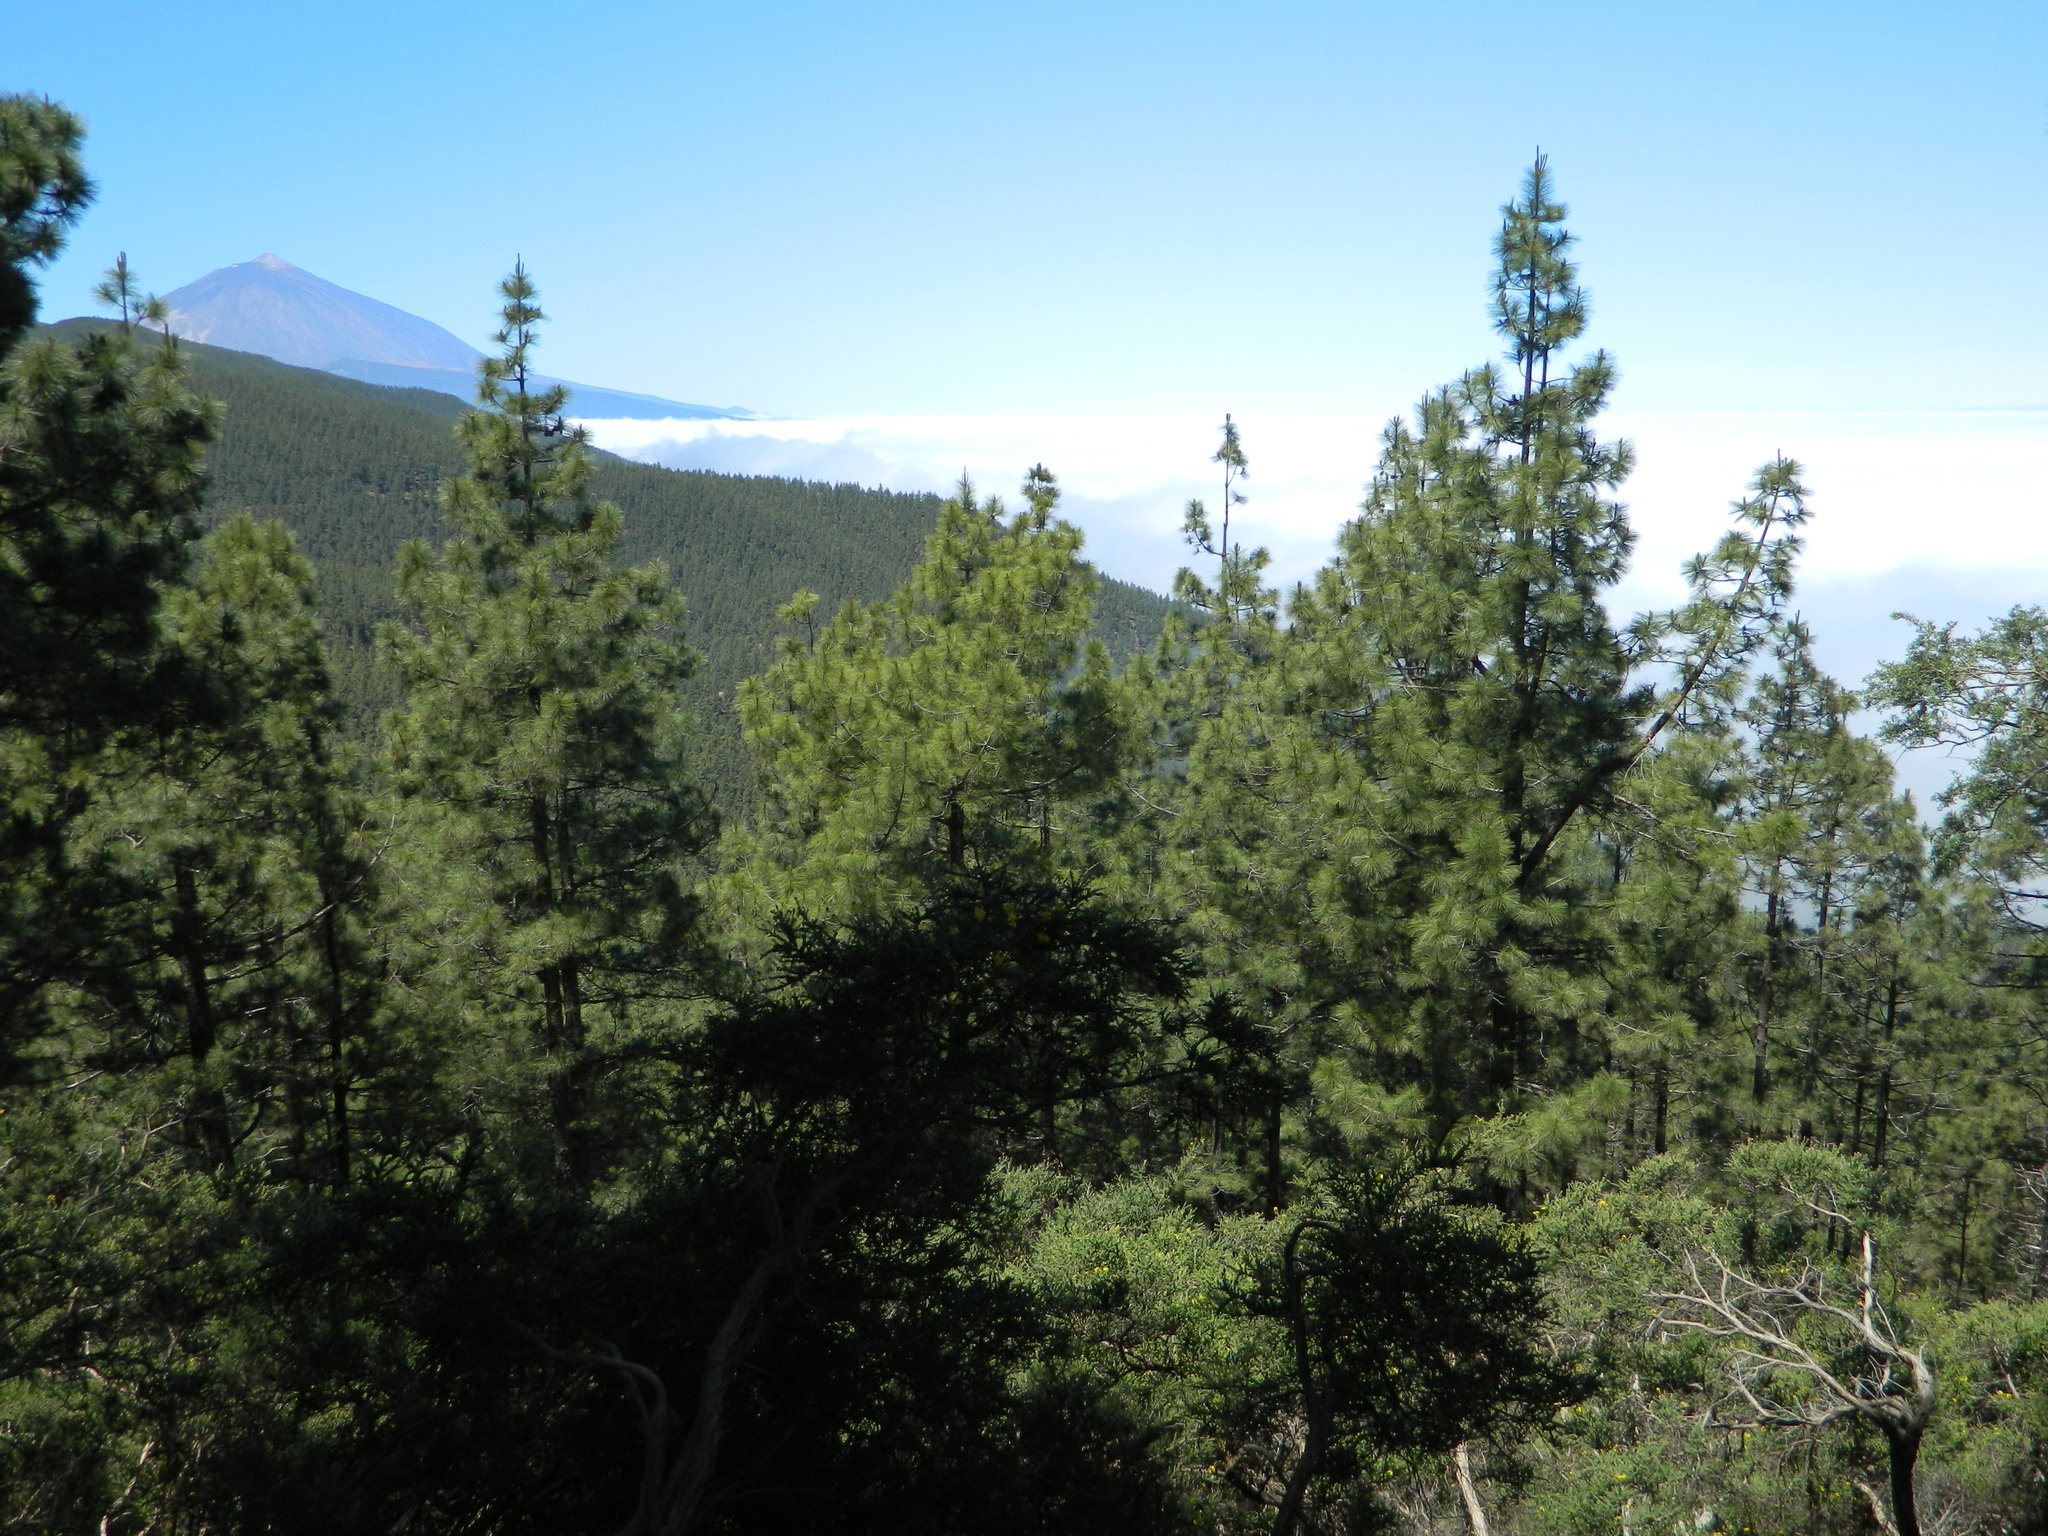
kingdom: Plantae
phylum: Tracheophyta
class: Pinopsida
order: Pinales
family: Pinaceae
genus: Pinus
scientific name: Pinus canariensis
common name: Canary islands pine
